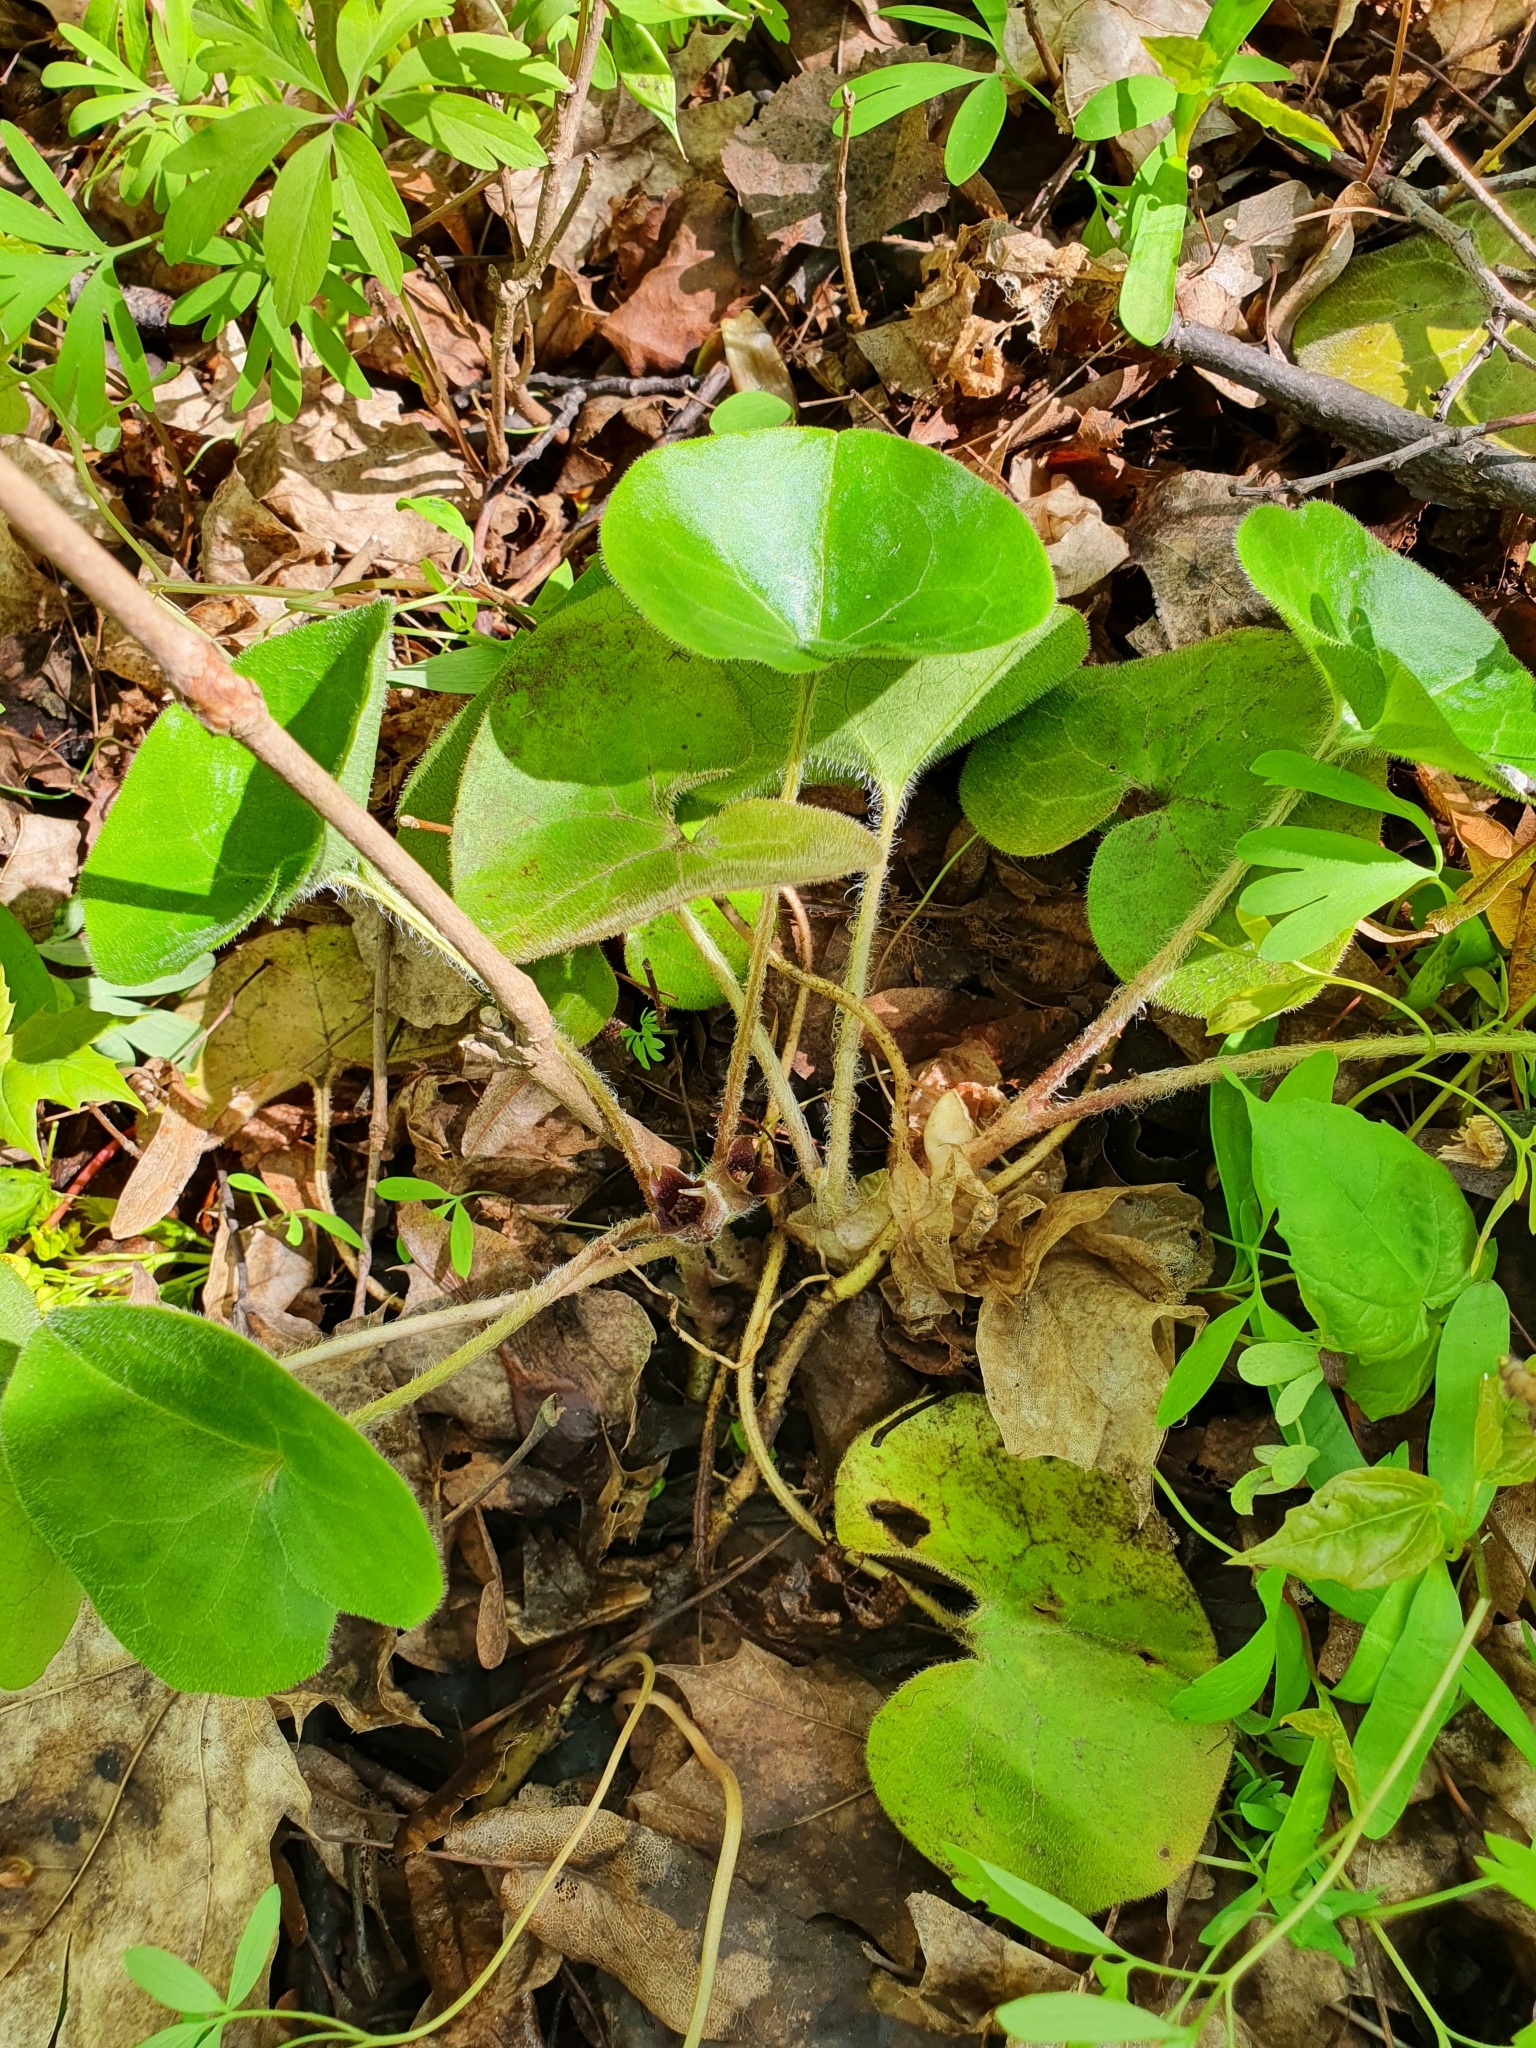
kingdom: Plantae
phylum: Tracheophyta
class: Magnoliopsida
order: Piperales
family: Aristolochiaceae
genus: Asarum
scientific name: Asarum europaeum
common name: Asarabacca
